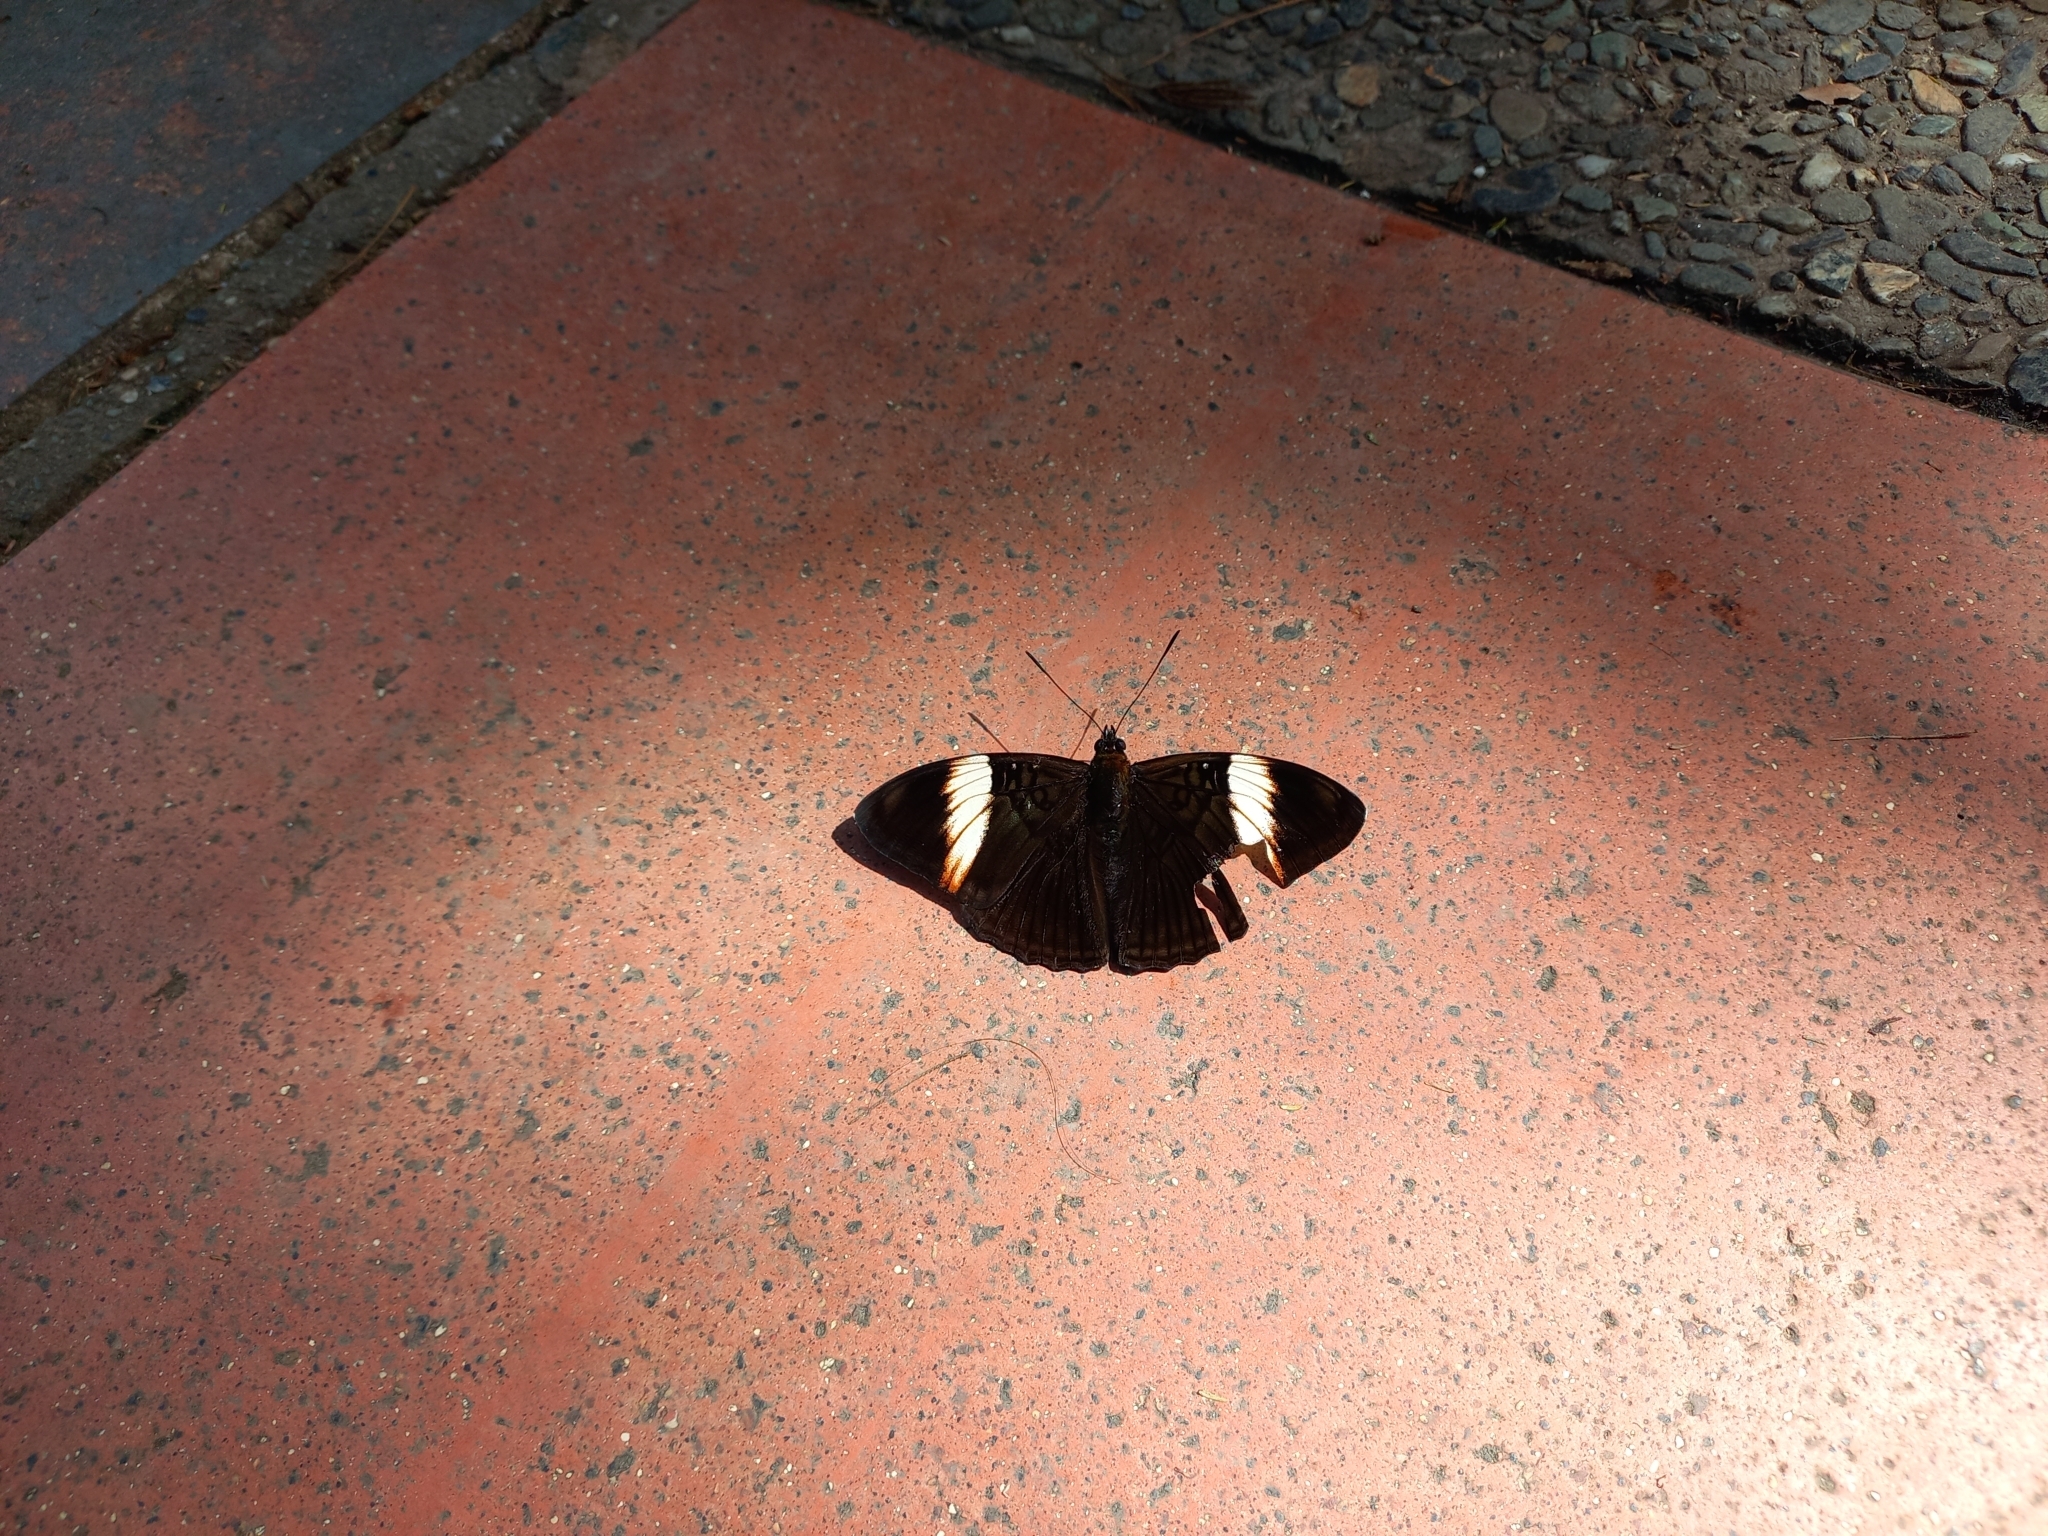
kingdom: Animalia
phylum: Arthropoda
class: Insecta
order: Lepidoptera
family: Nymphalidae
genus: Limenitis
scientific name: Limenitis isis
